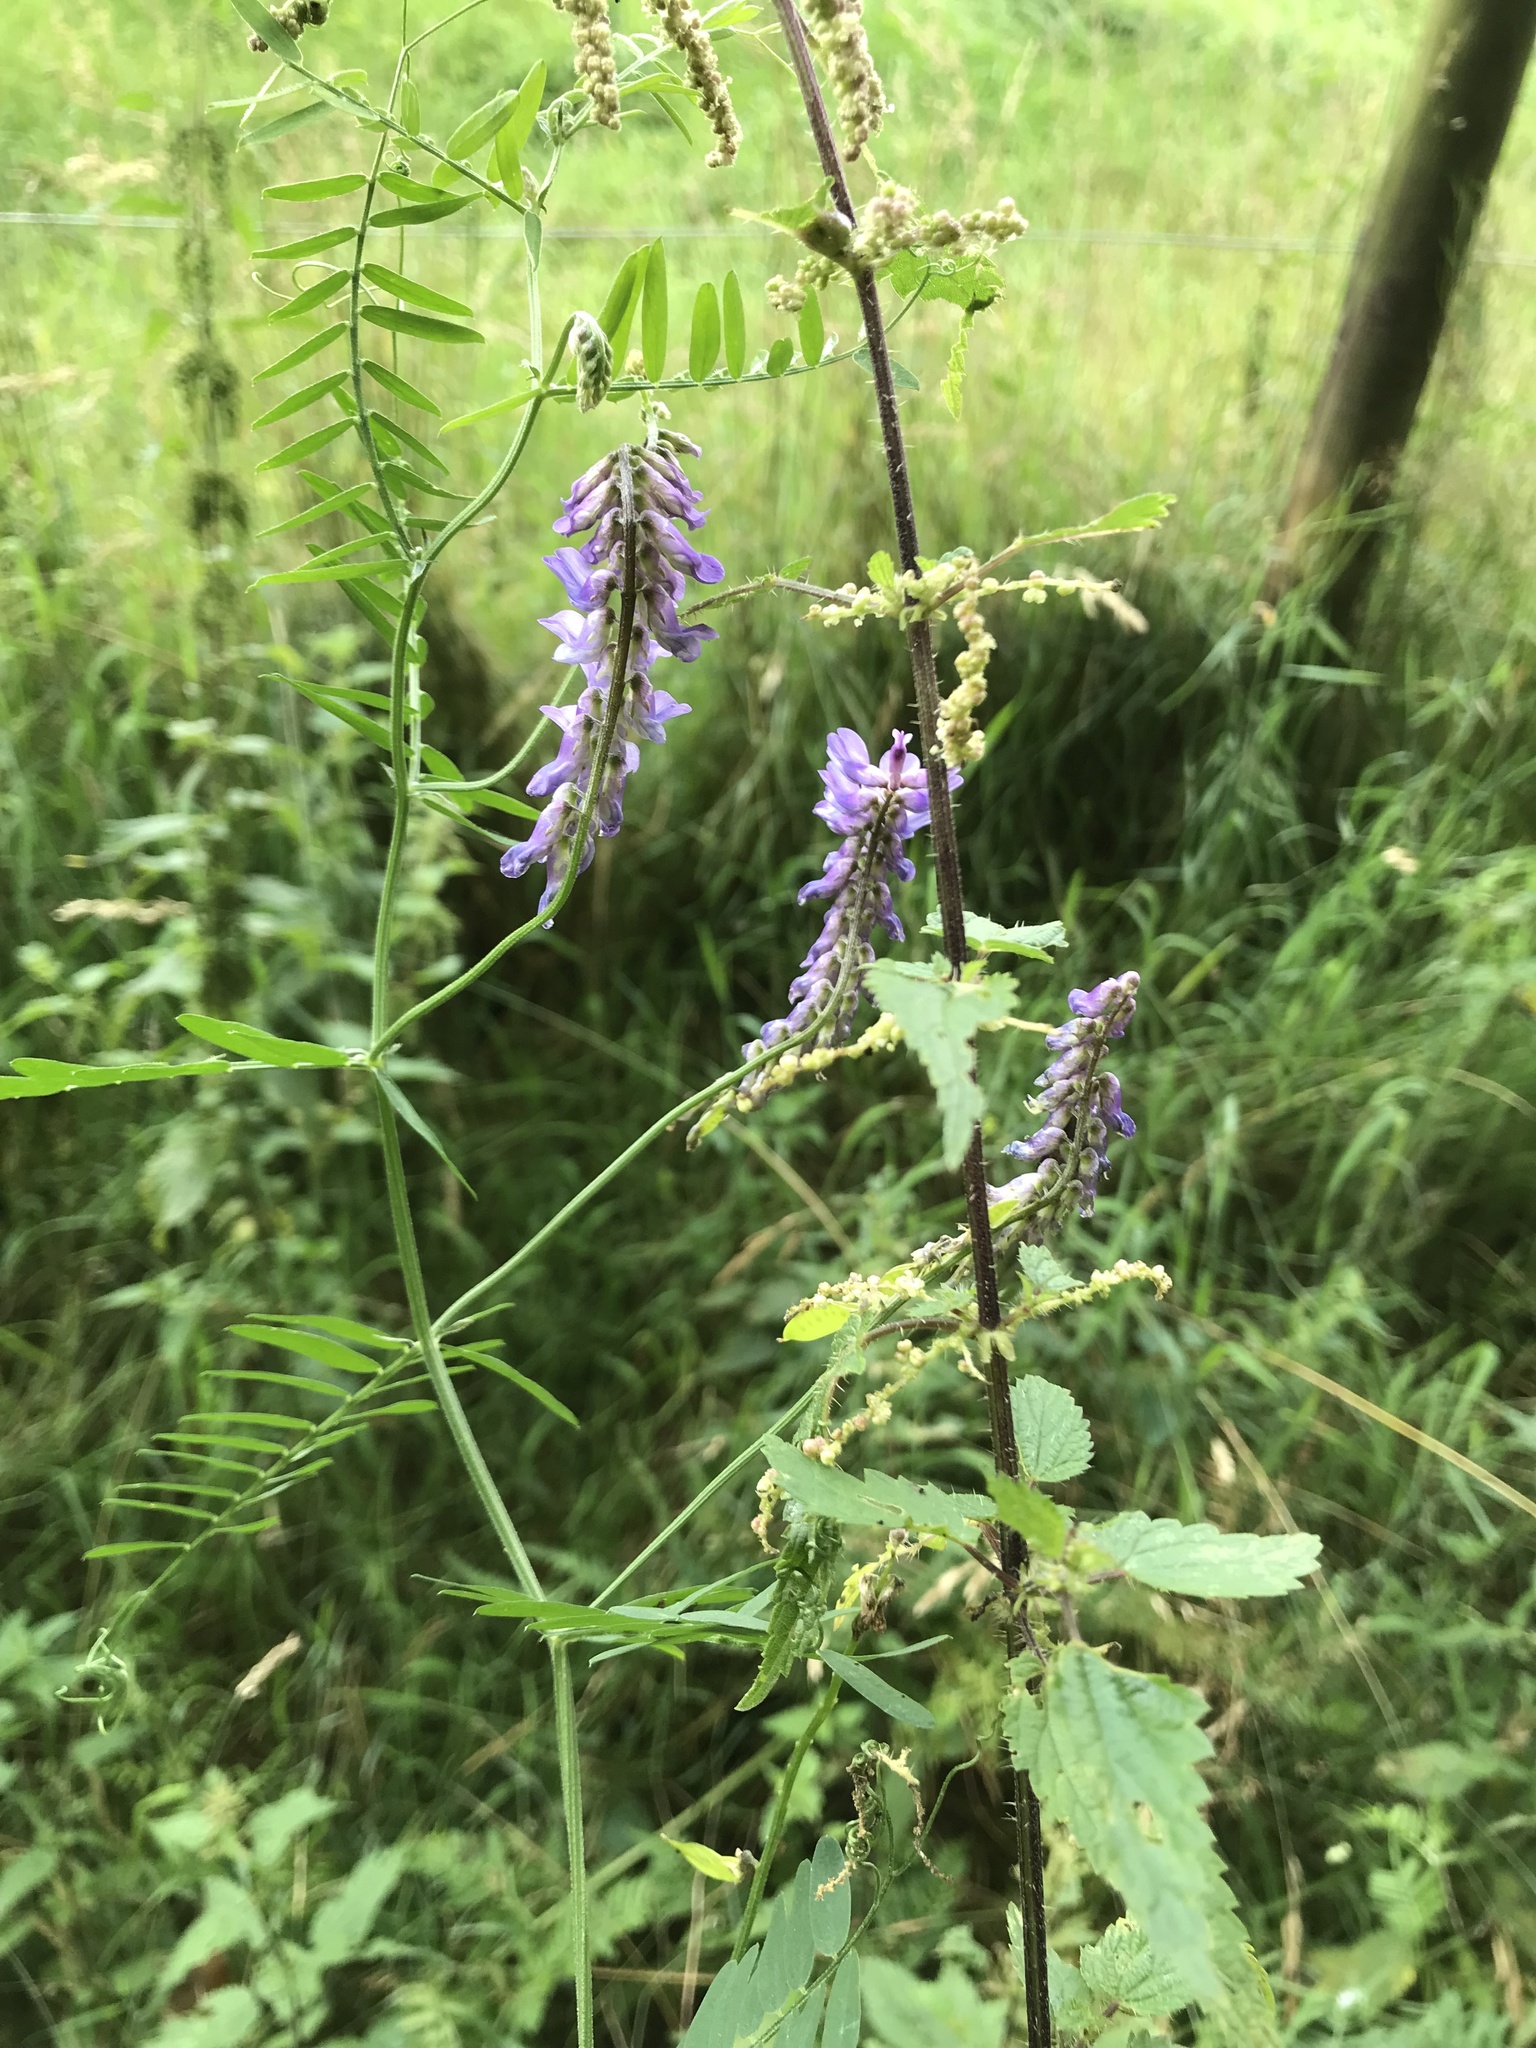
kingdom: Plantae
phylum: Tracheophyta
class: Magnoliopsida
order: Fabales
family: Fabaceae
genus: Vicia
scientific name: Vicia cracca
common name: Bird vetch
